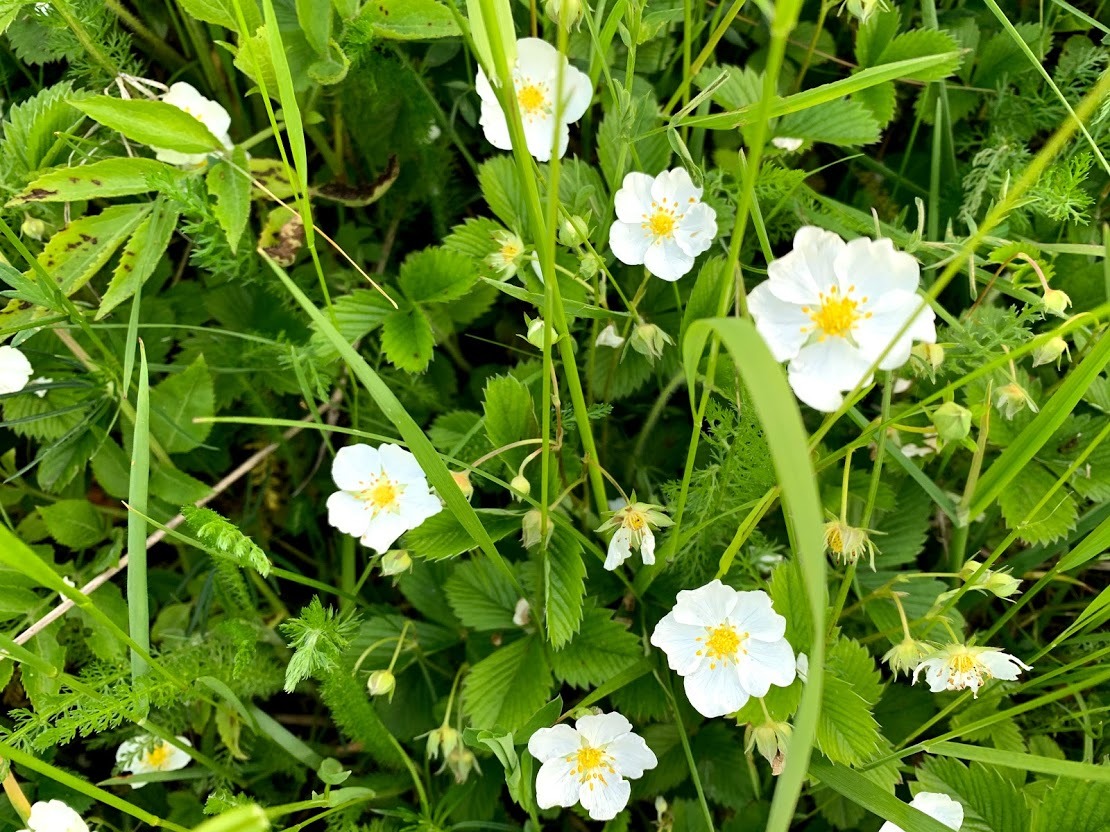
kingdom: Plantae
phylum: Tracheophyta
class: Magnoliopsida
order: Rosales
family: Rosaceae
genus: Fragaria
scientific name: Fragaria viridis
